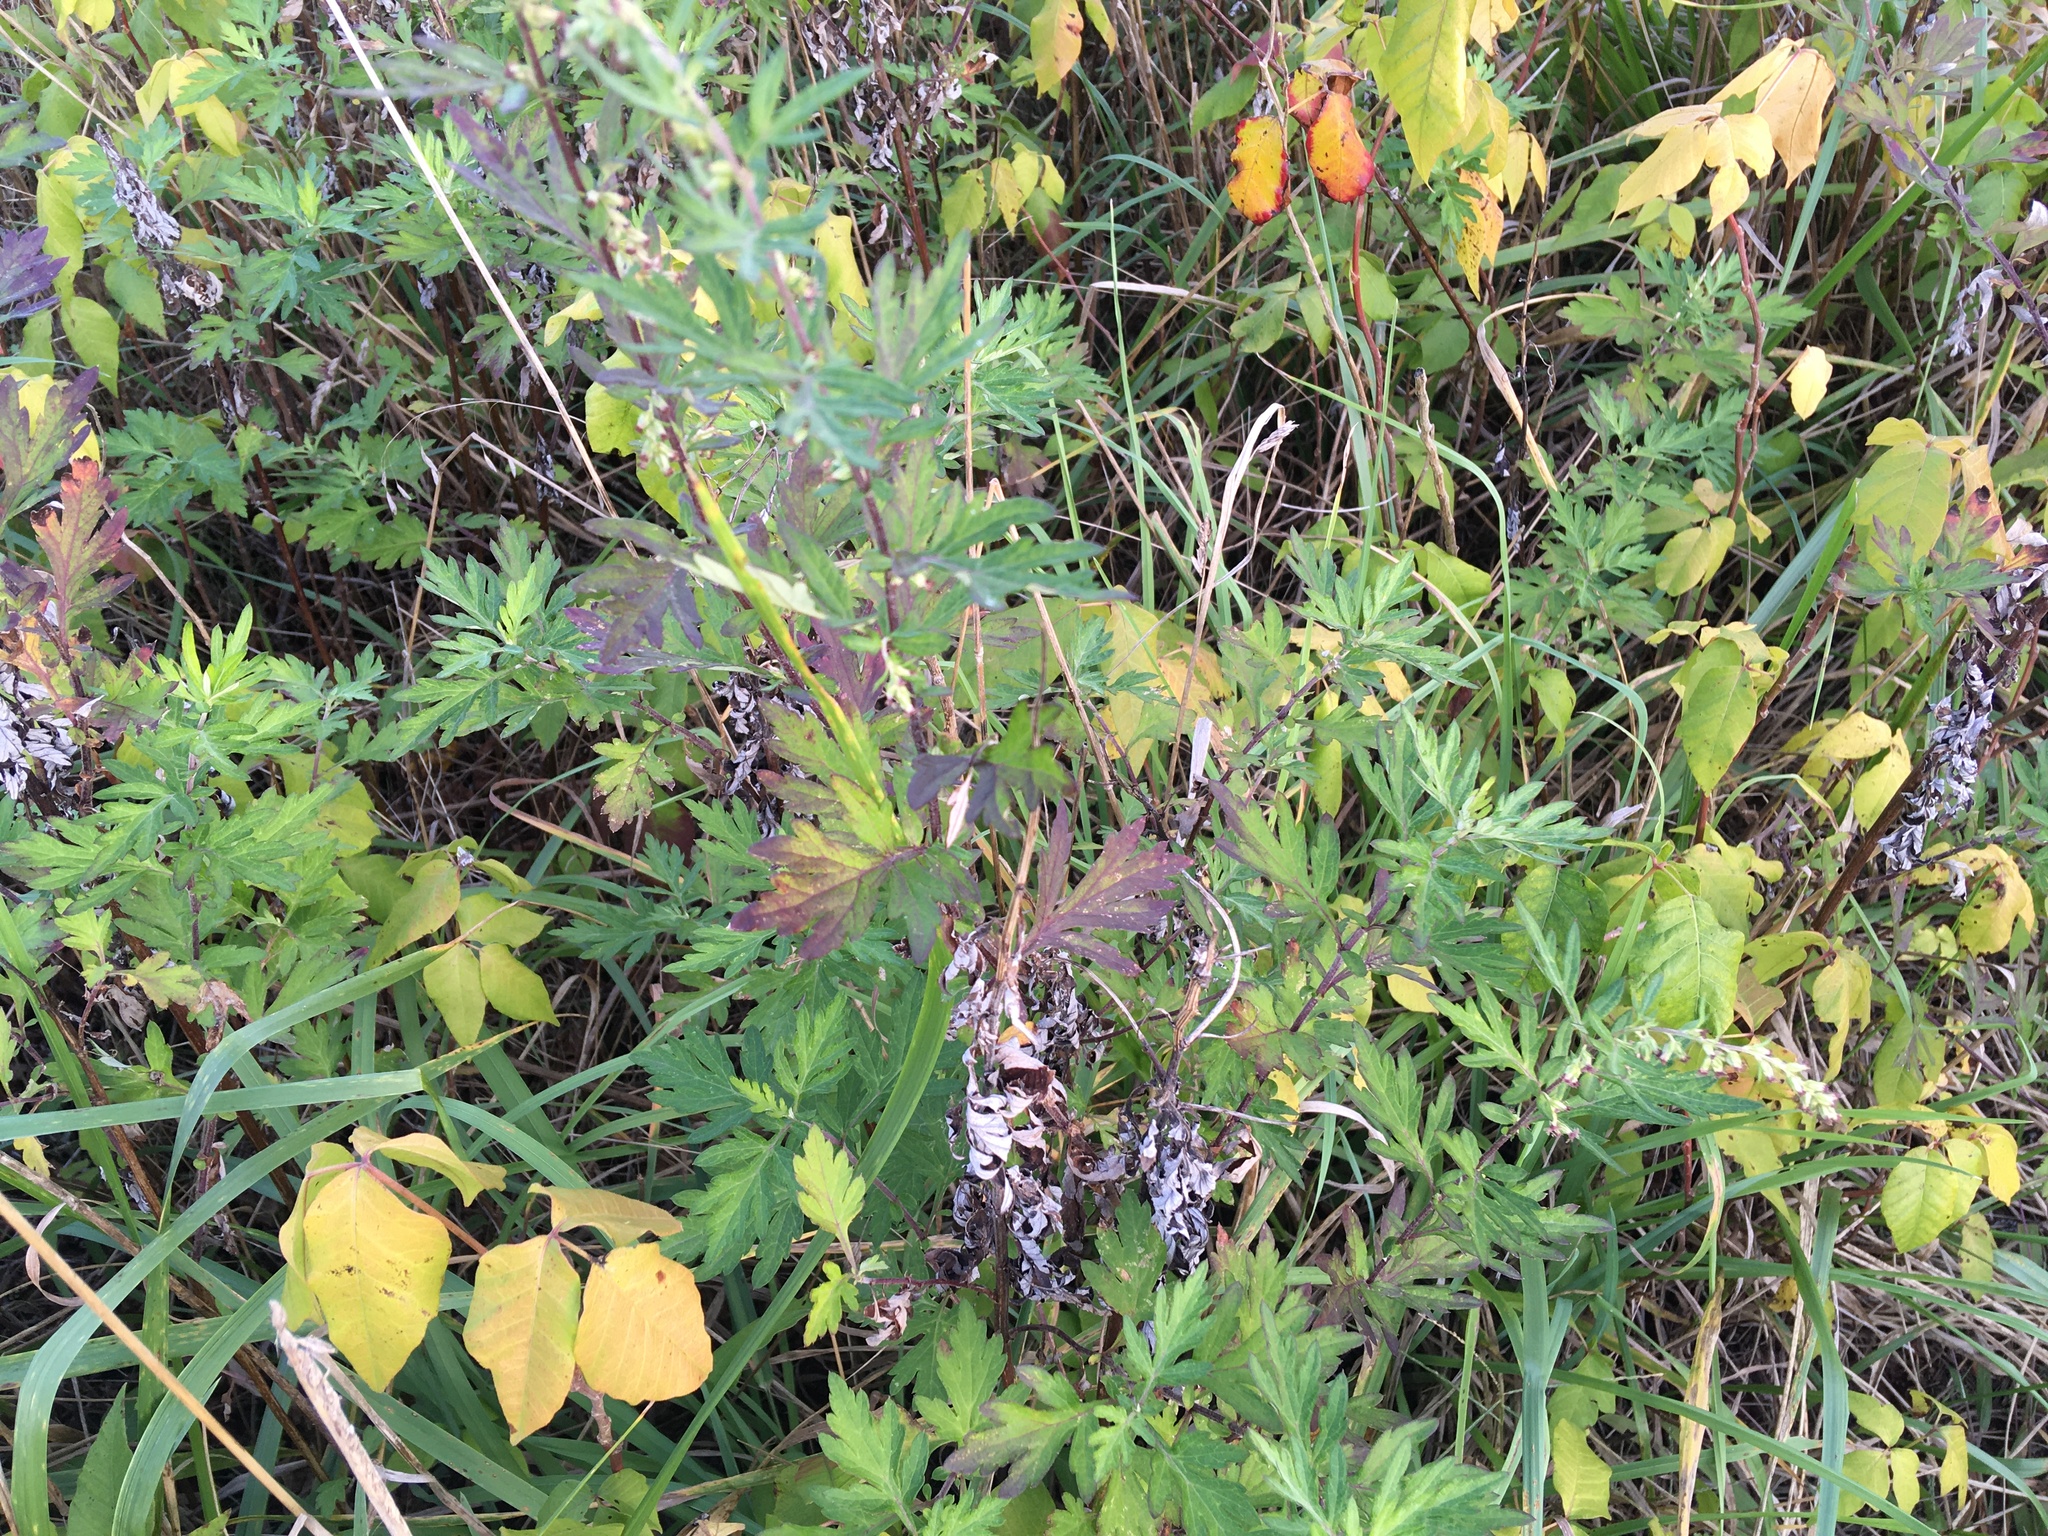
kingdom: Plantae
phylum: Tracheophyta
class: Magnoliopsida
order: Asterales
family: Asteraceae
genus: Artemisia
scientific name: Artemisia vulgaris
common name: Mugwort
